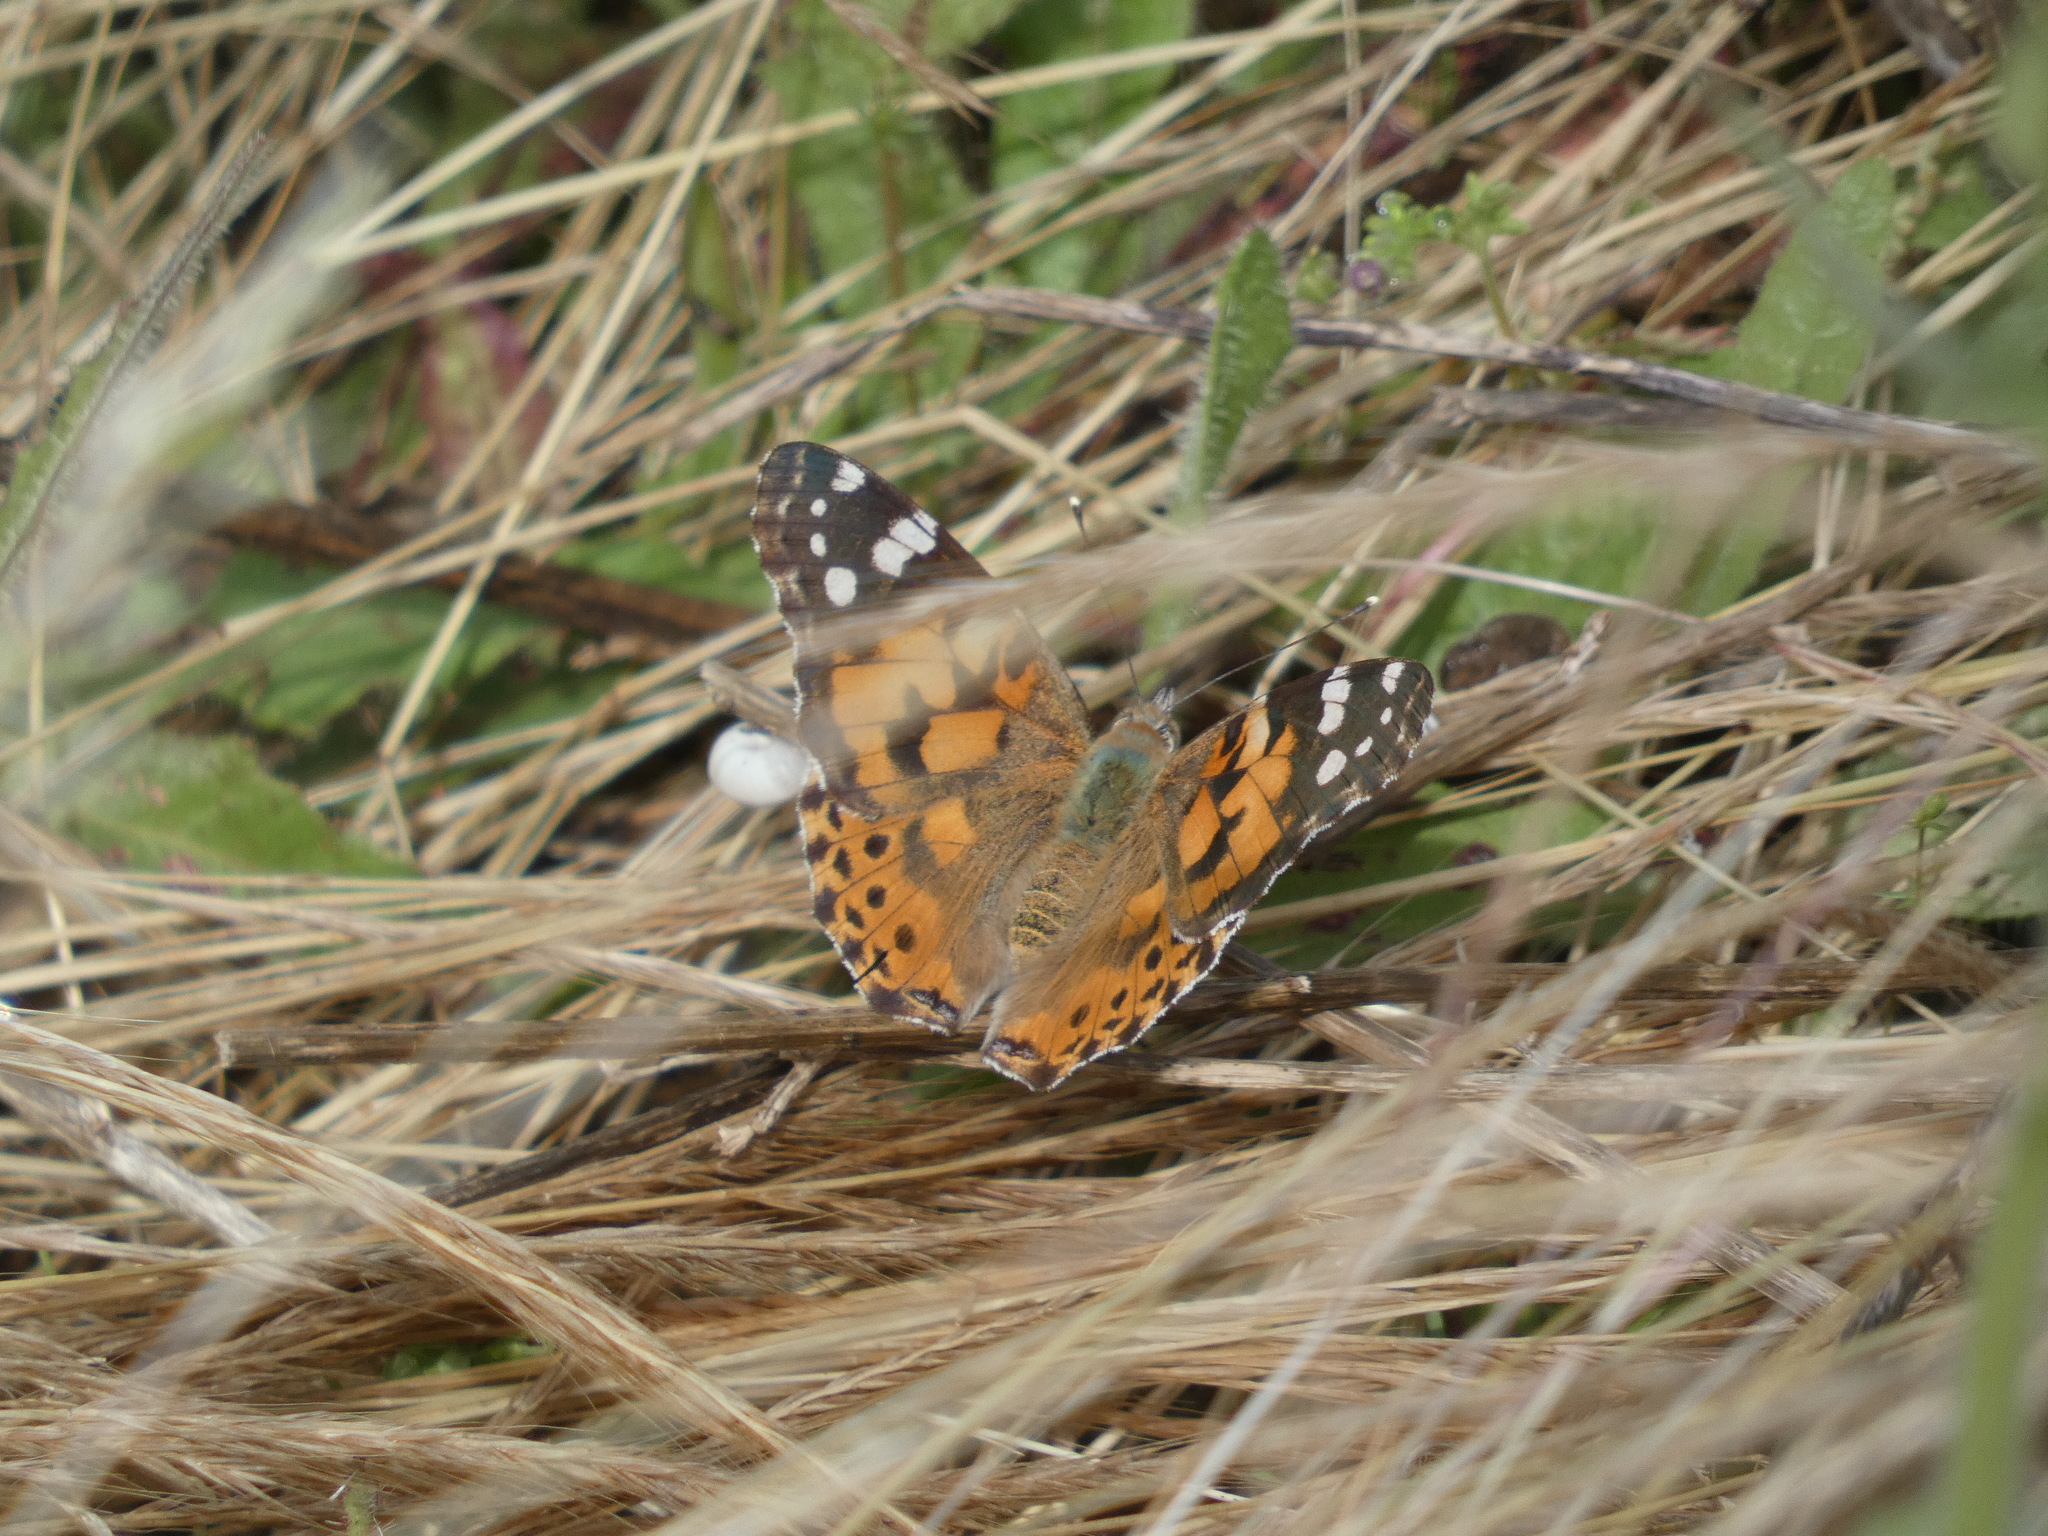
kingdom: Animalia
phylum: Arthropoda
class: Insecta
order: Lepidoptera
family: Nymphalidae
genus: Vanessa
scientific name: Vanessa cardui
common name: Painted lady
